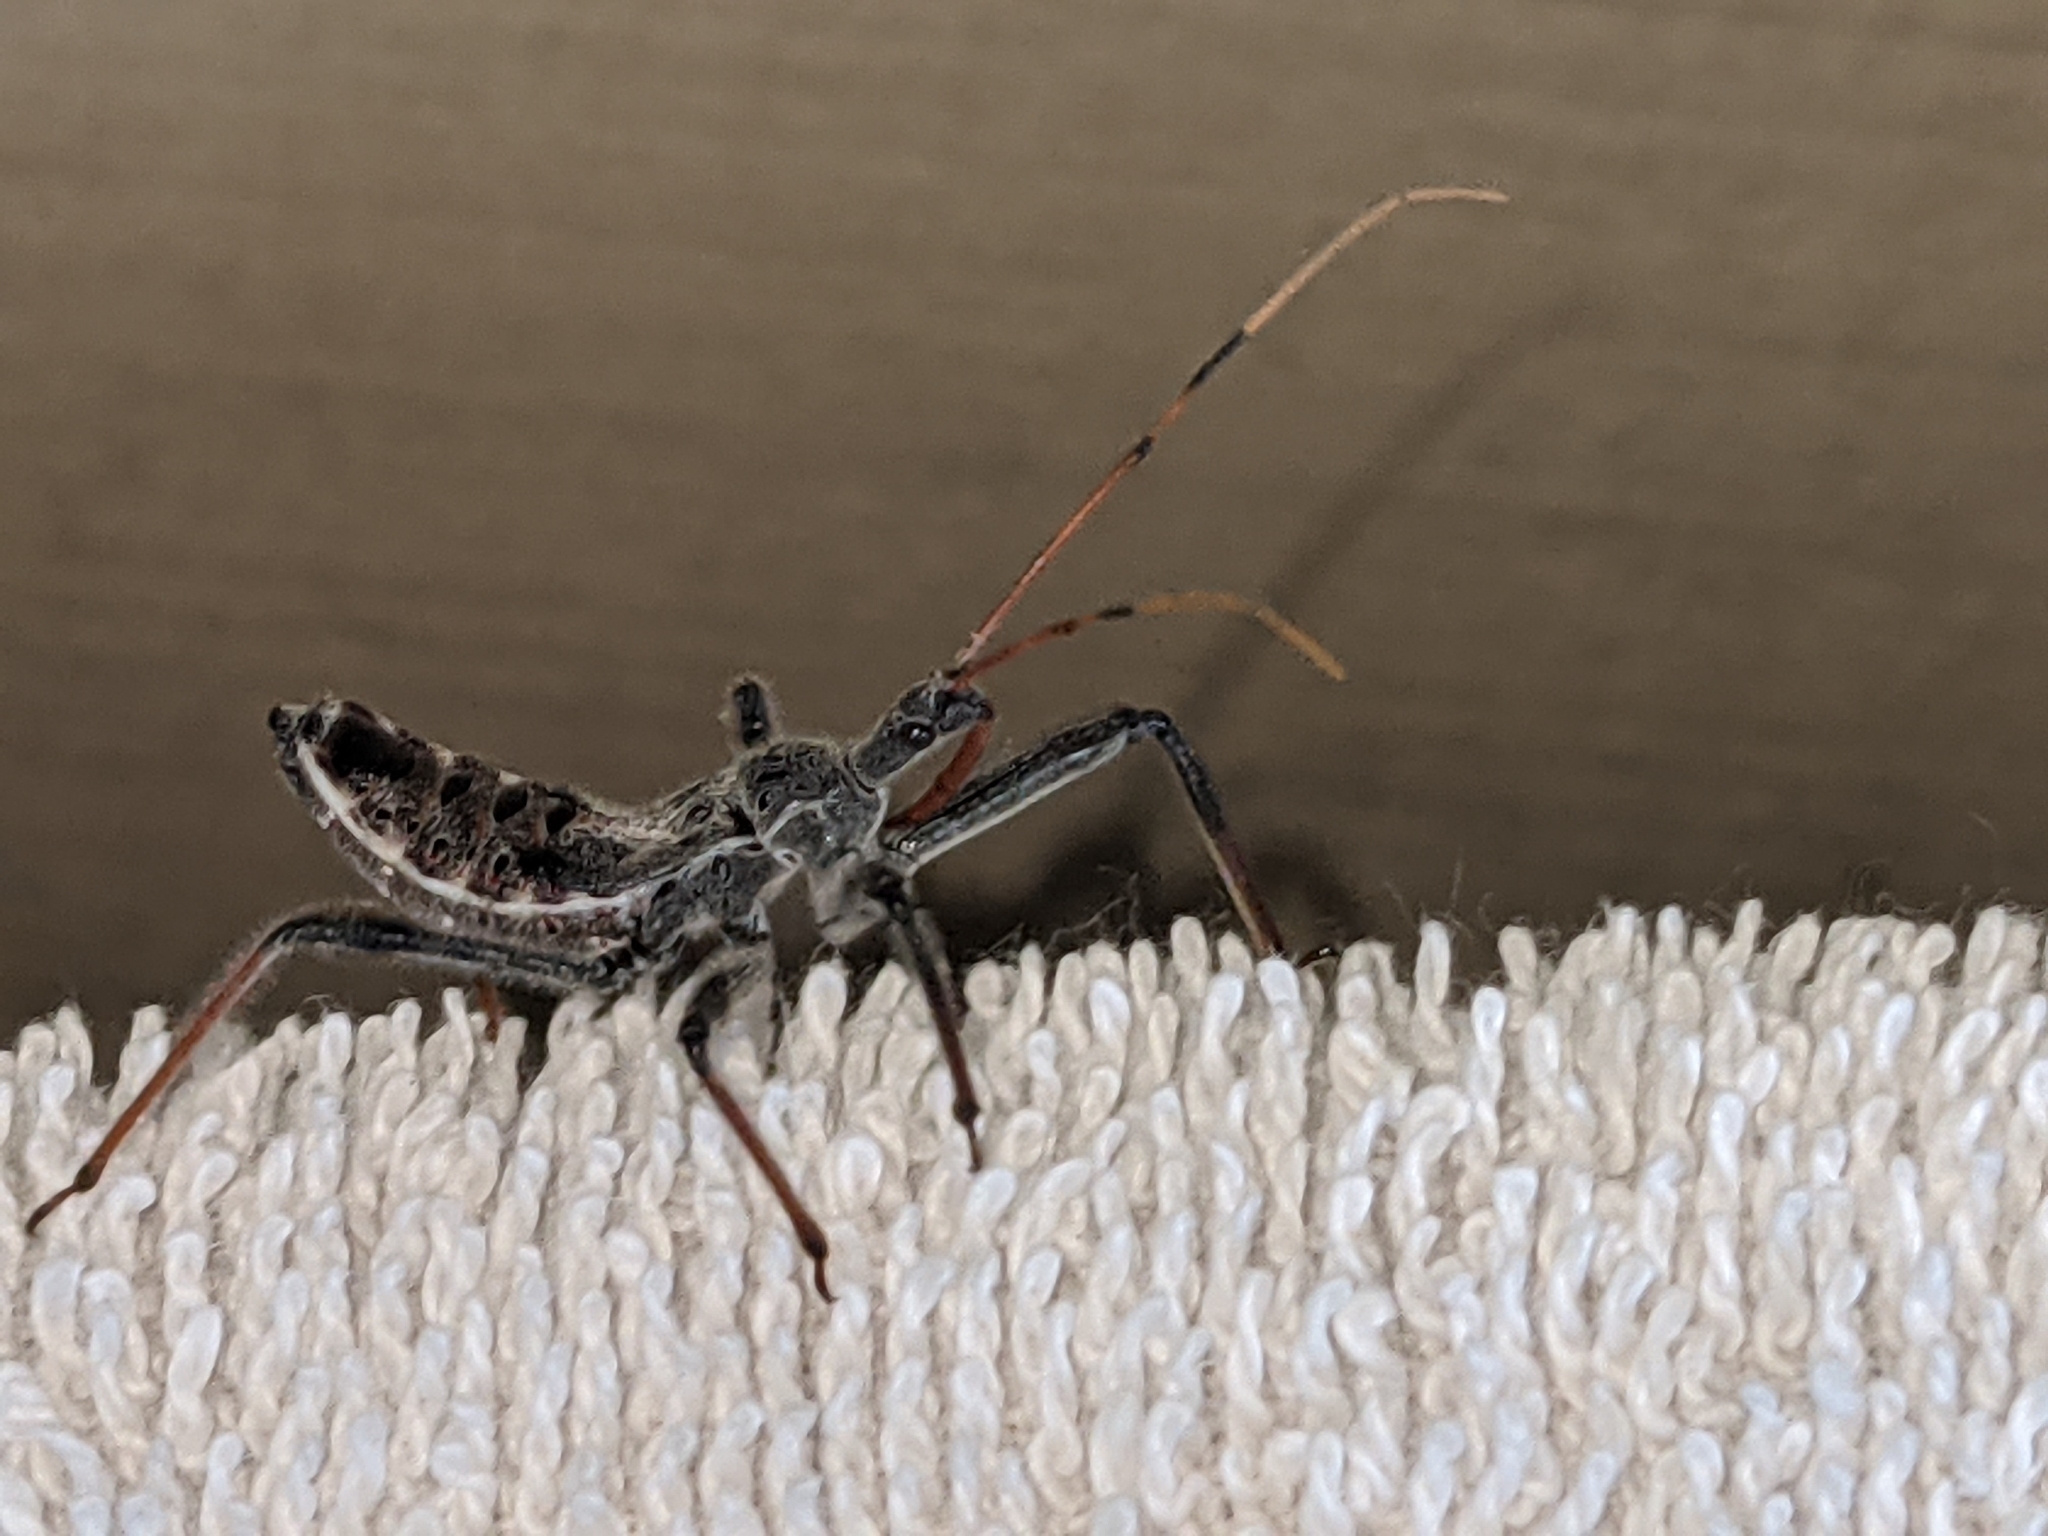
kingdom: Animalia
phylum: Arthropoda
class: Insecta
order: Hemiptera
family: Reduviidae
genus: Arilus
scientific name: Arilus cristatus
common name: North american wheel bug
